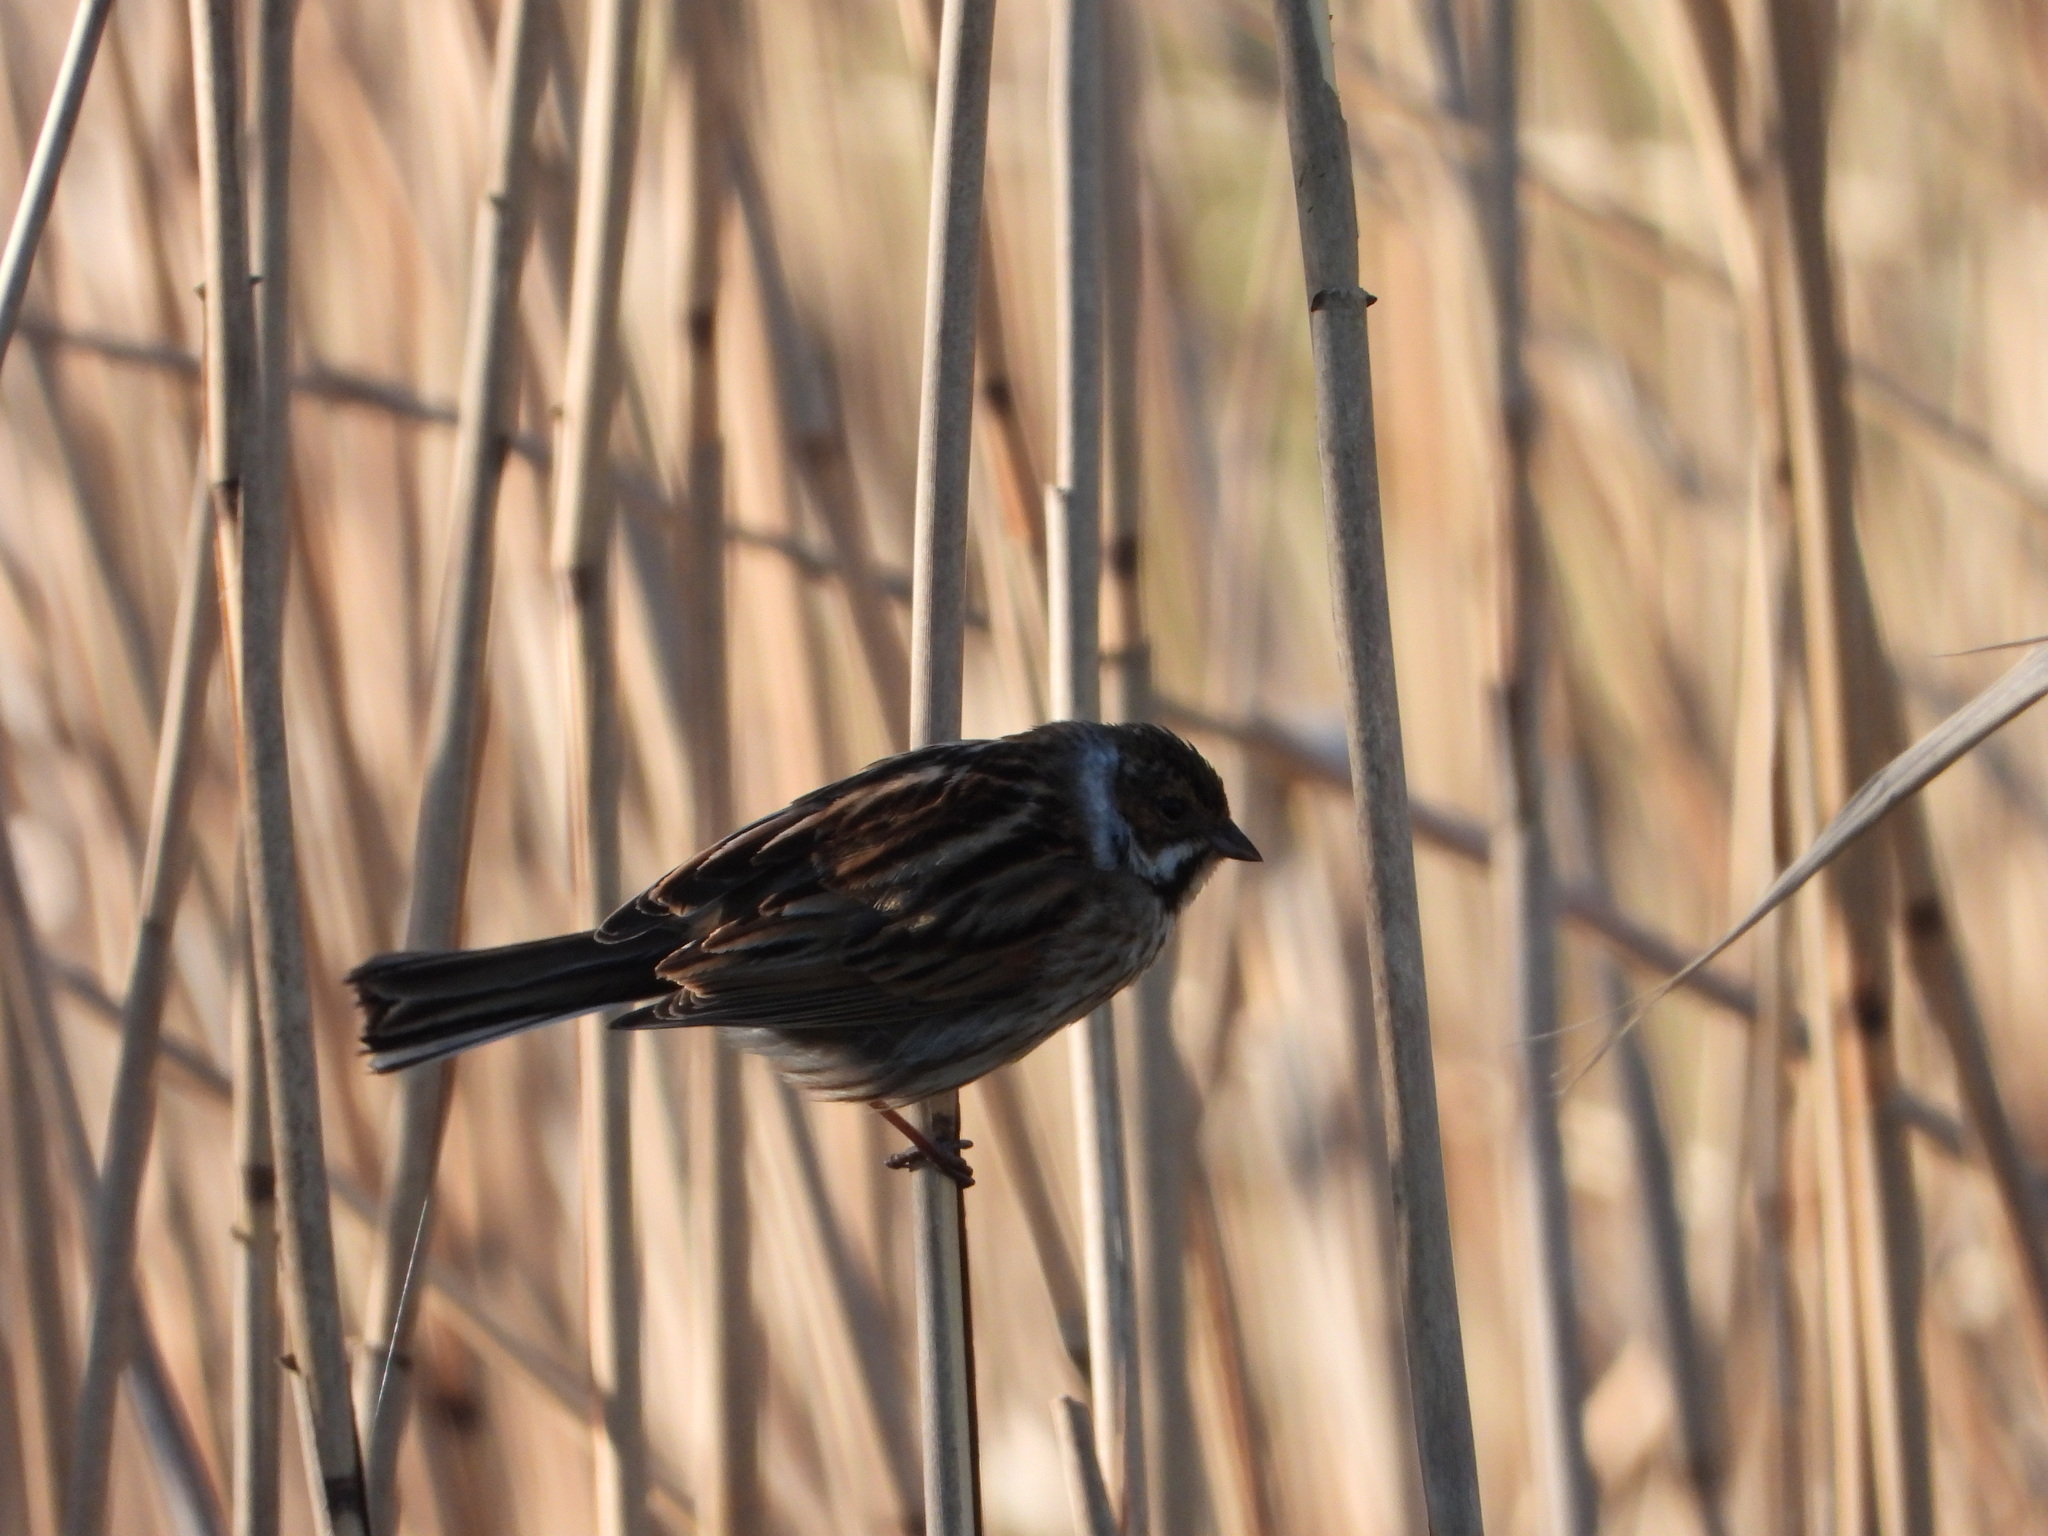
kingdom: Animalia
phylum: Chordata
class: Aves
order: Passeriformes
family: Emberizidae
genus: Emberiza
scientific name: Emberiza schoeniclus
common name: Reed bunting
